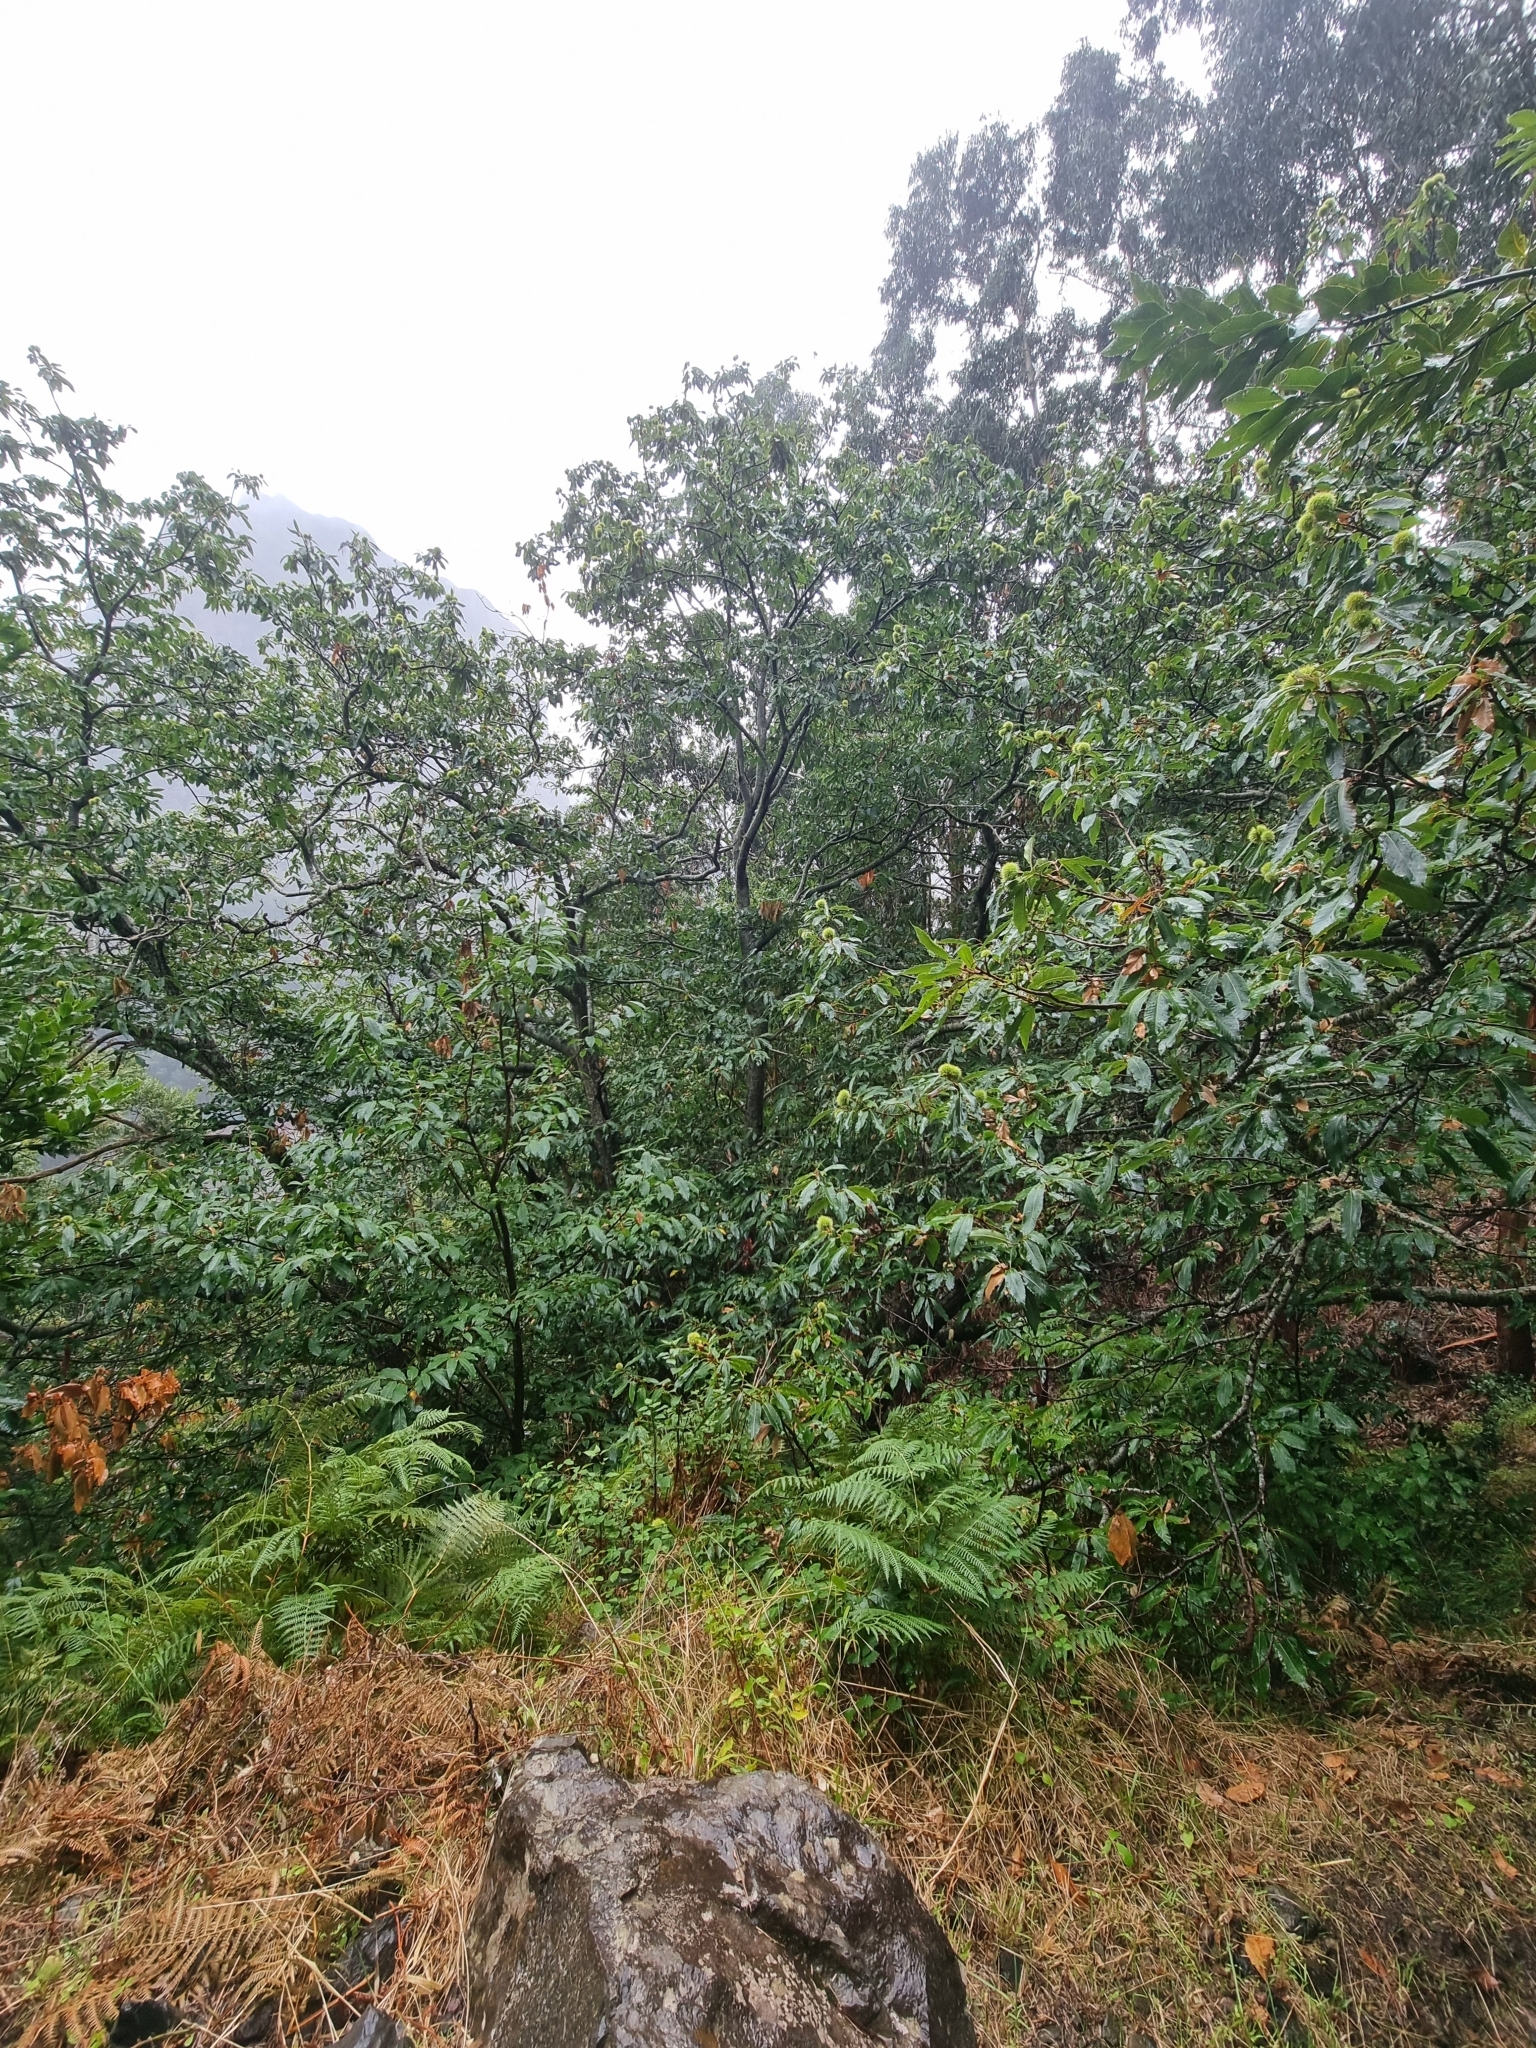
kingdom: Plantae
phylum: Tracheophyta
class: Magnoliopsida
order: Fagales
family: Fagaceae
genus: Castanea
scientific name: Castanea sativa
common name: Sweet chestnut
